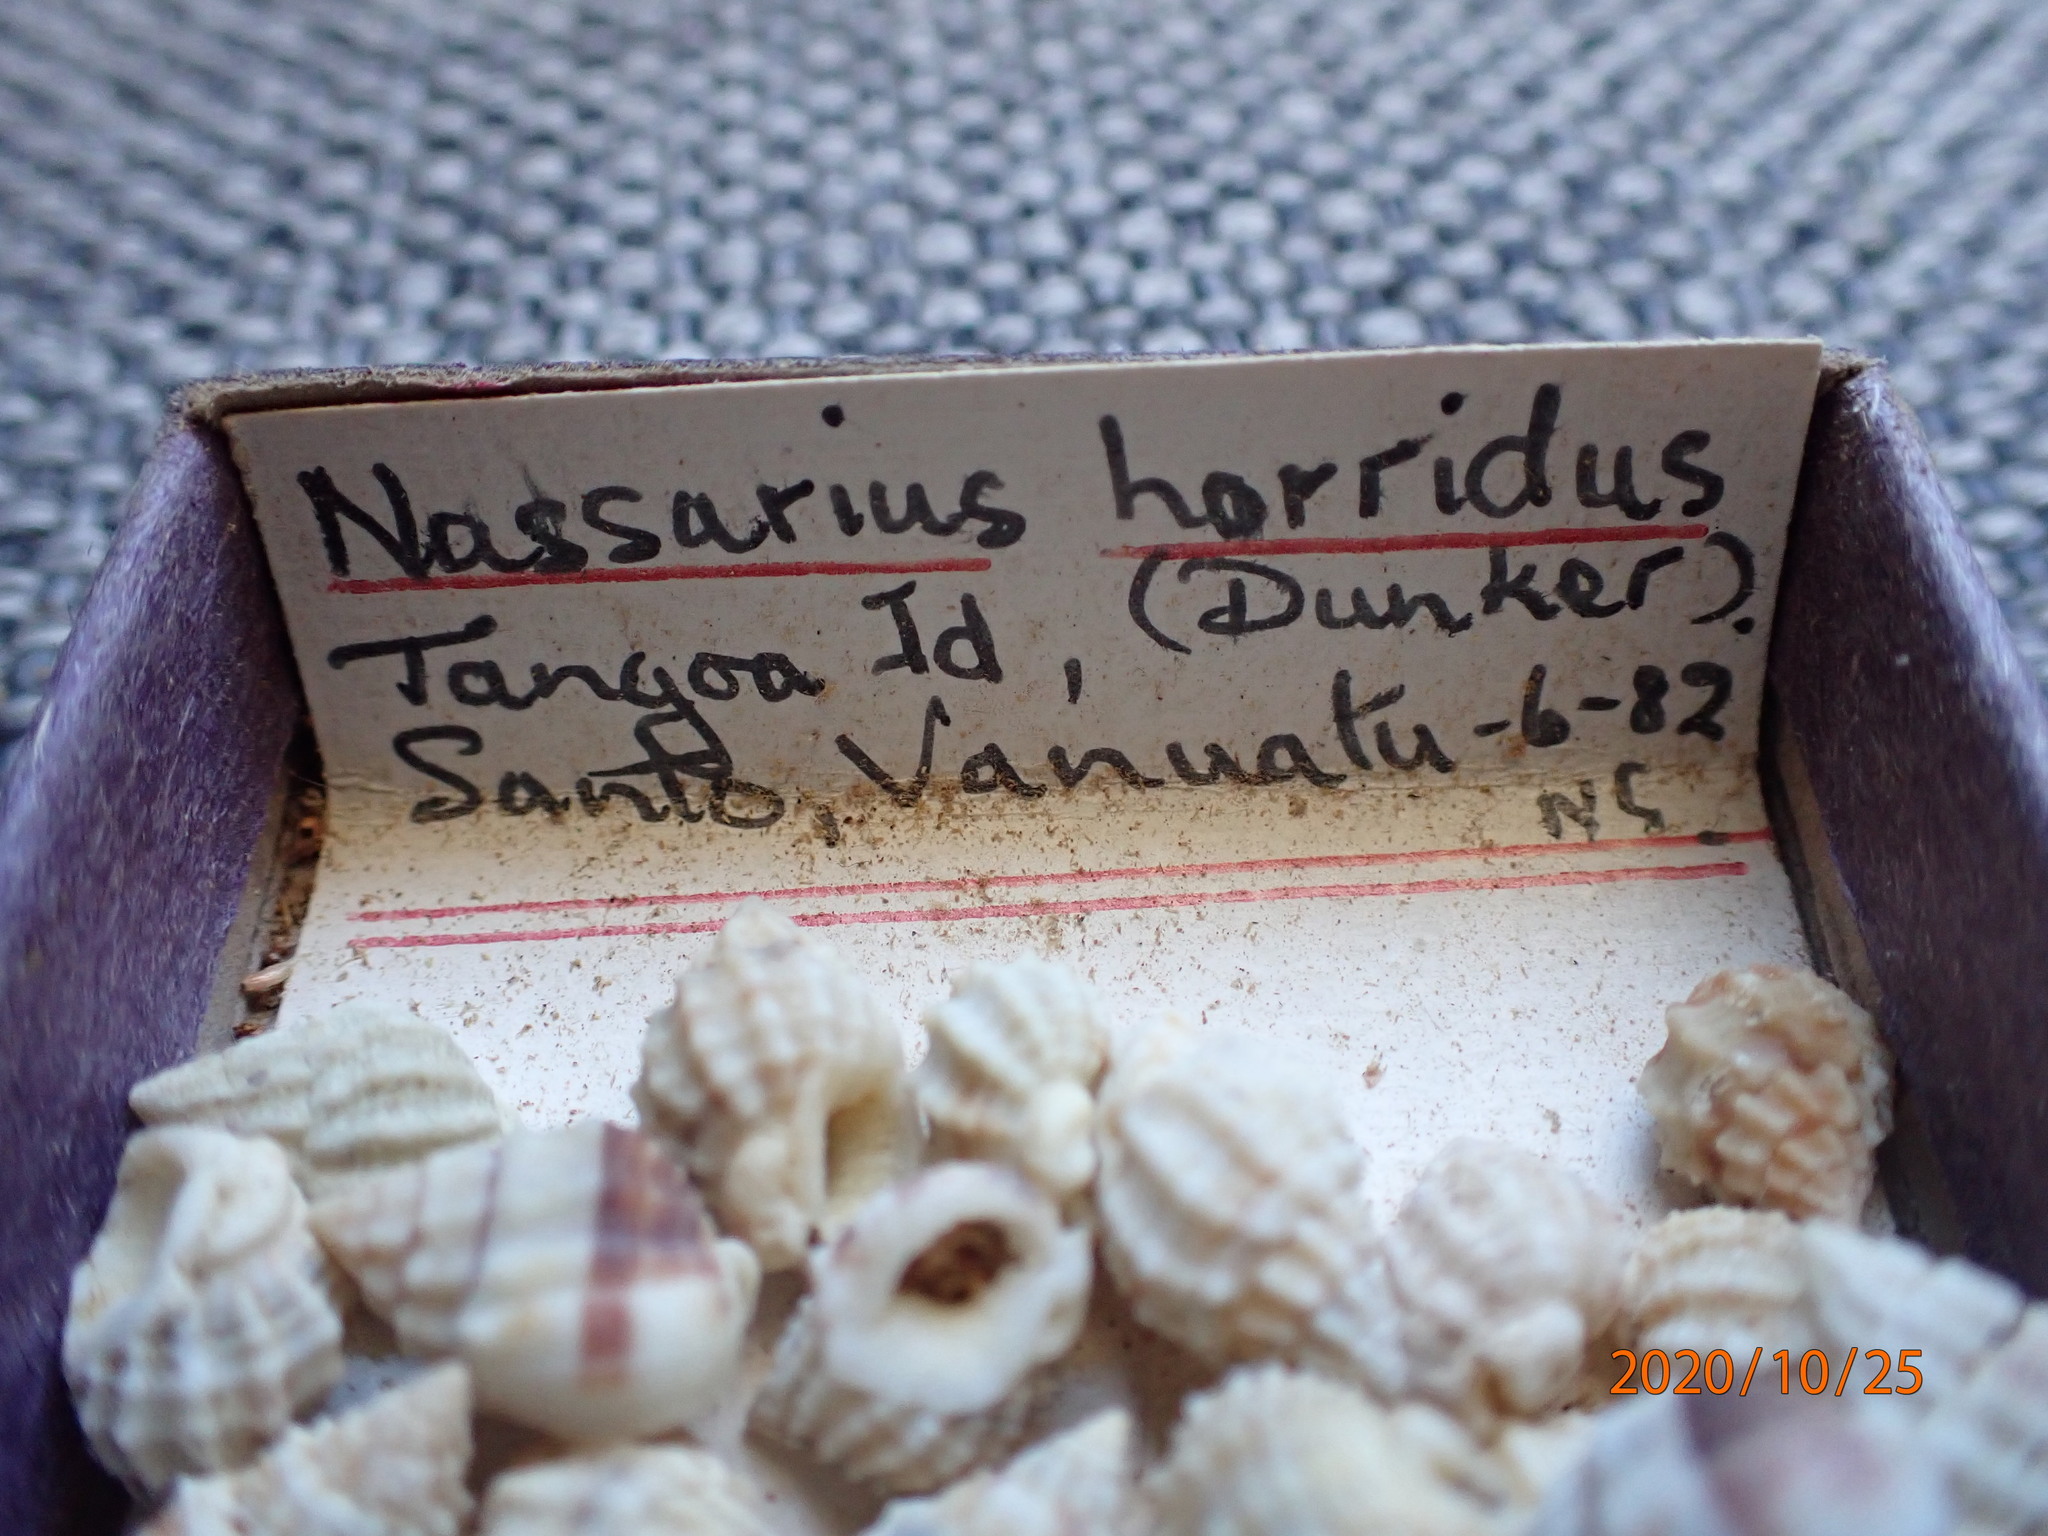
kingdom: Animalia
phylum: Mollusca
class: Gastropoda
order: Neogastropoda
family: Nassariidae
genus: Nassarius
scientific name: Nassarius horridus
